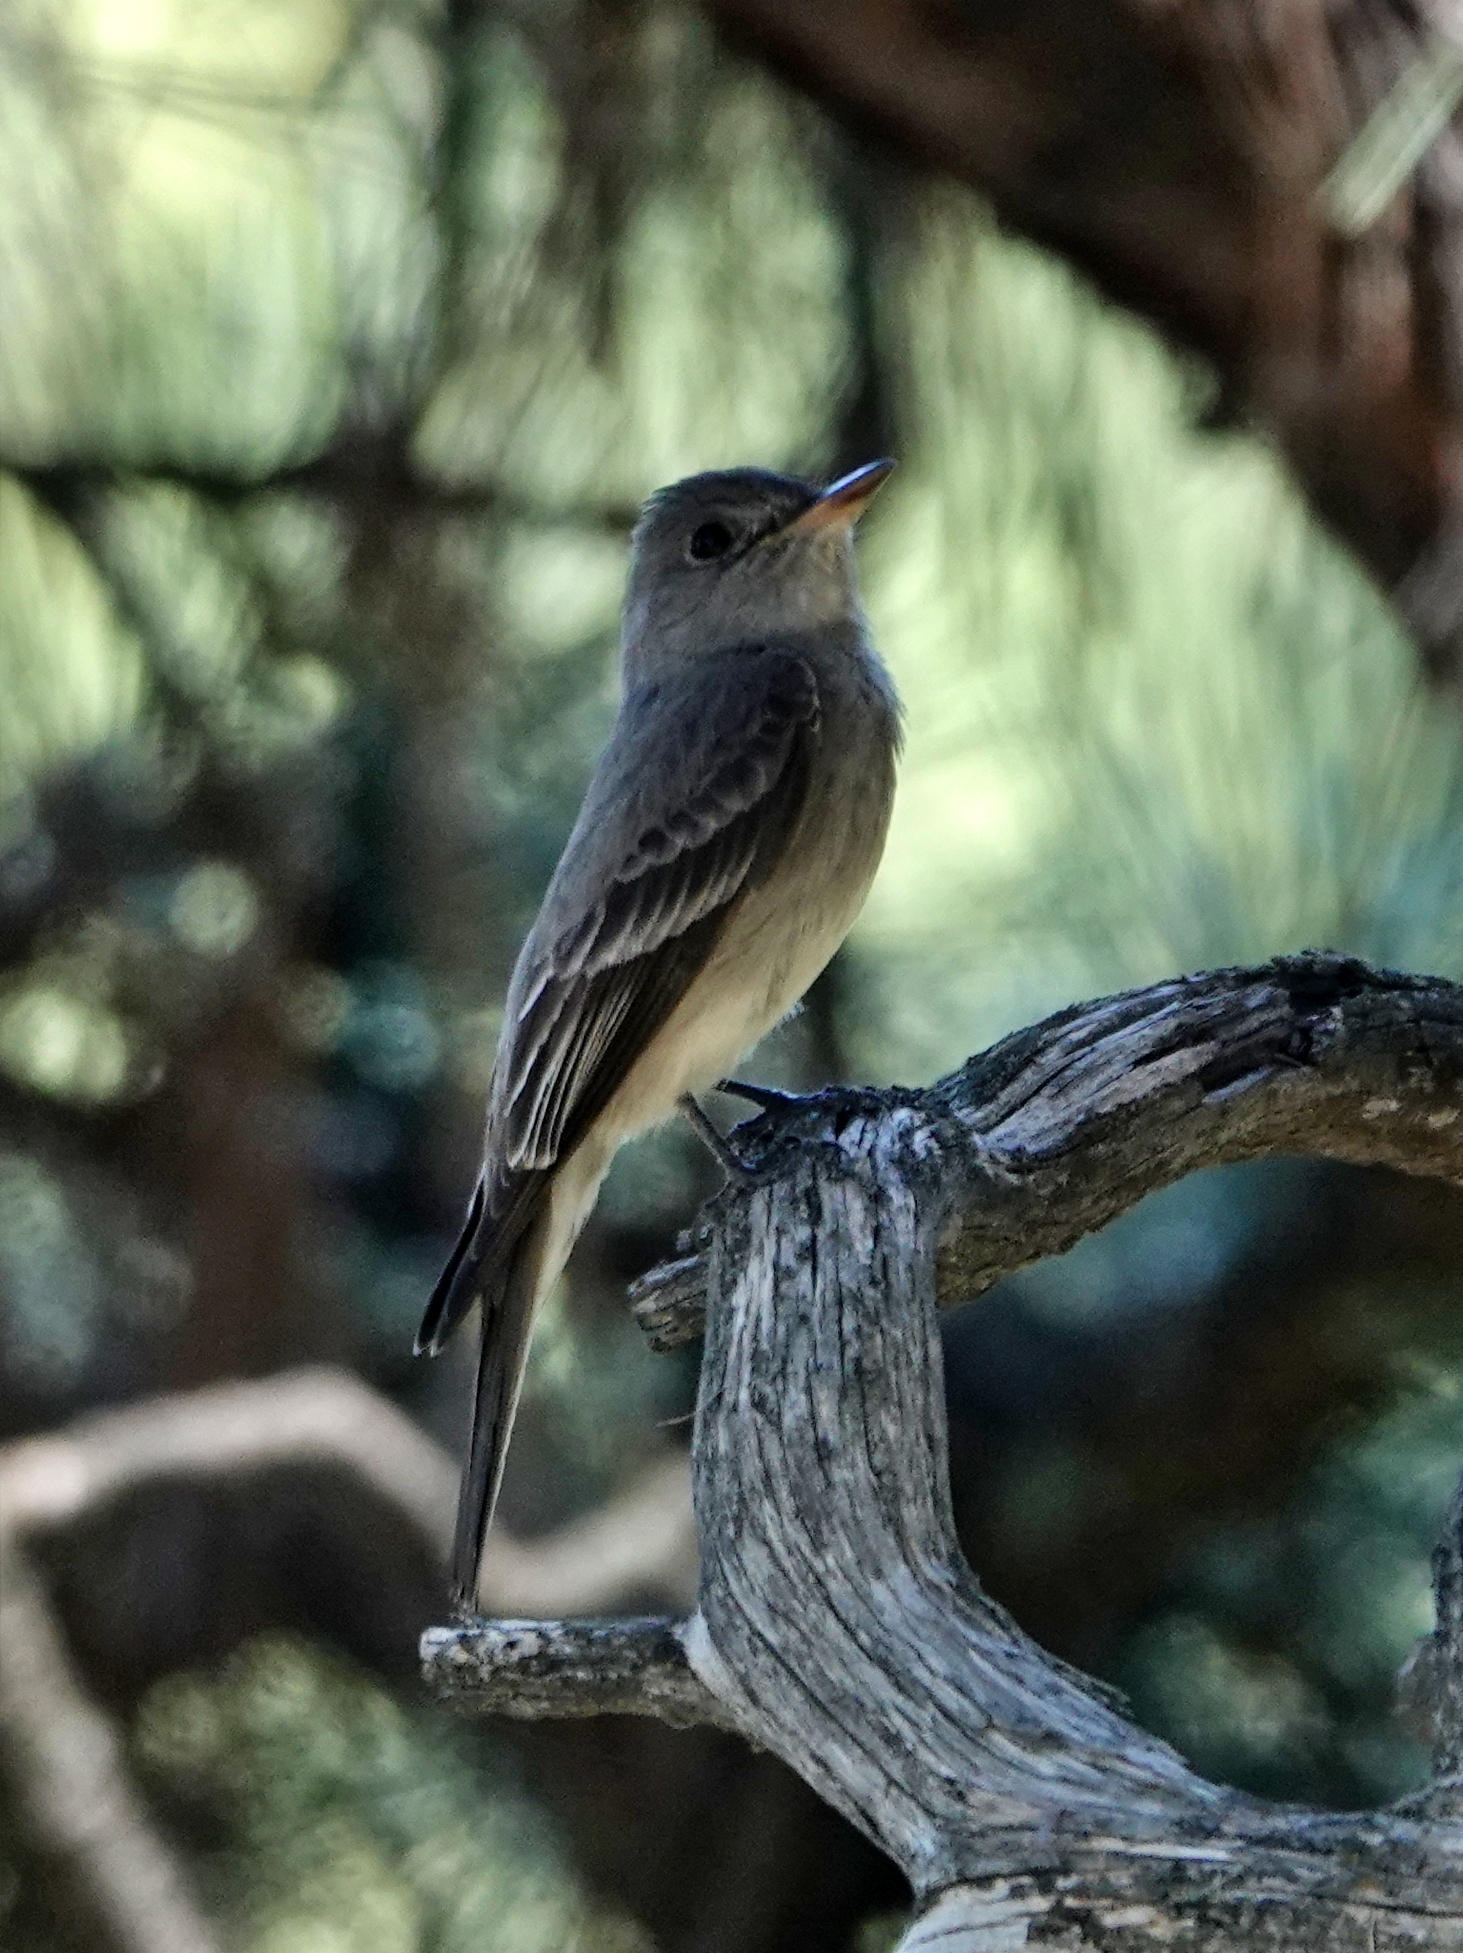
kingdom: Animalia
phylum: Chordata
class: Aves
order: Passeriformes
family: Tyrannidae
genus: Contopus
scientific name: Contopus sordidulus
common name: Western wood-pewee
